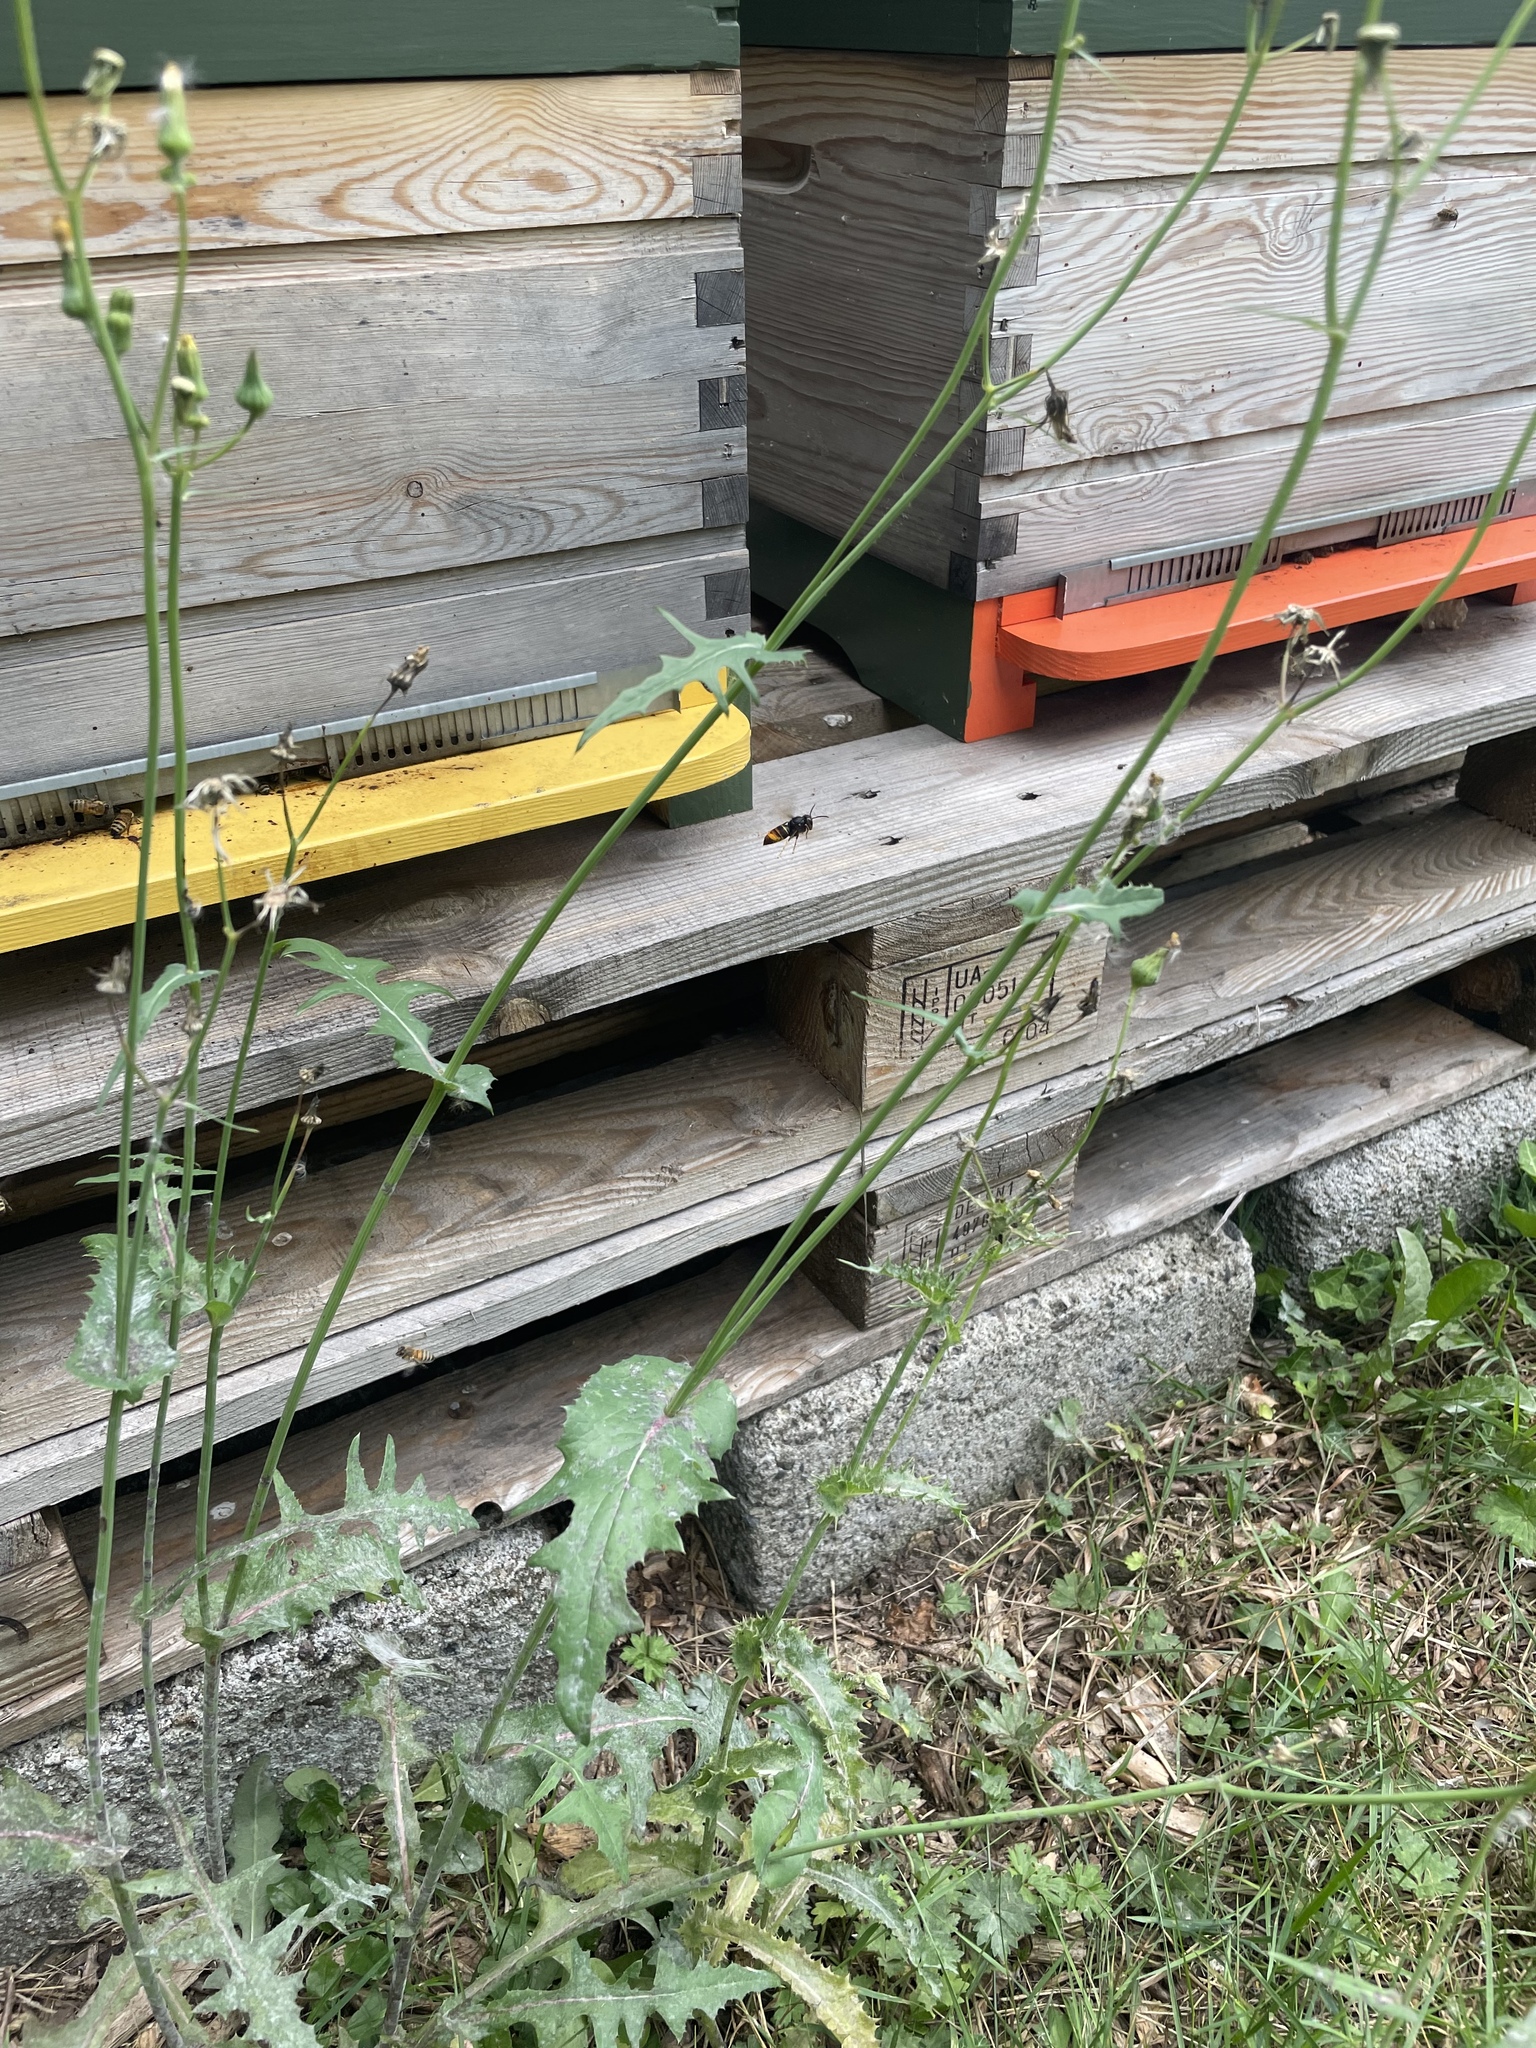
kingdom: Animalia
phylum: Arthropoda
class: Insecta
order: Hymenoptera
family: Vespidae
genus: Vespa
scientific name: Vespa velutina
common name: Asian hornet
